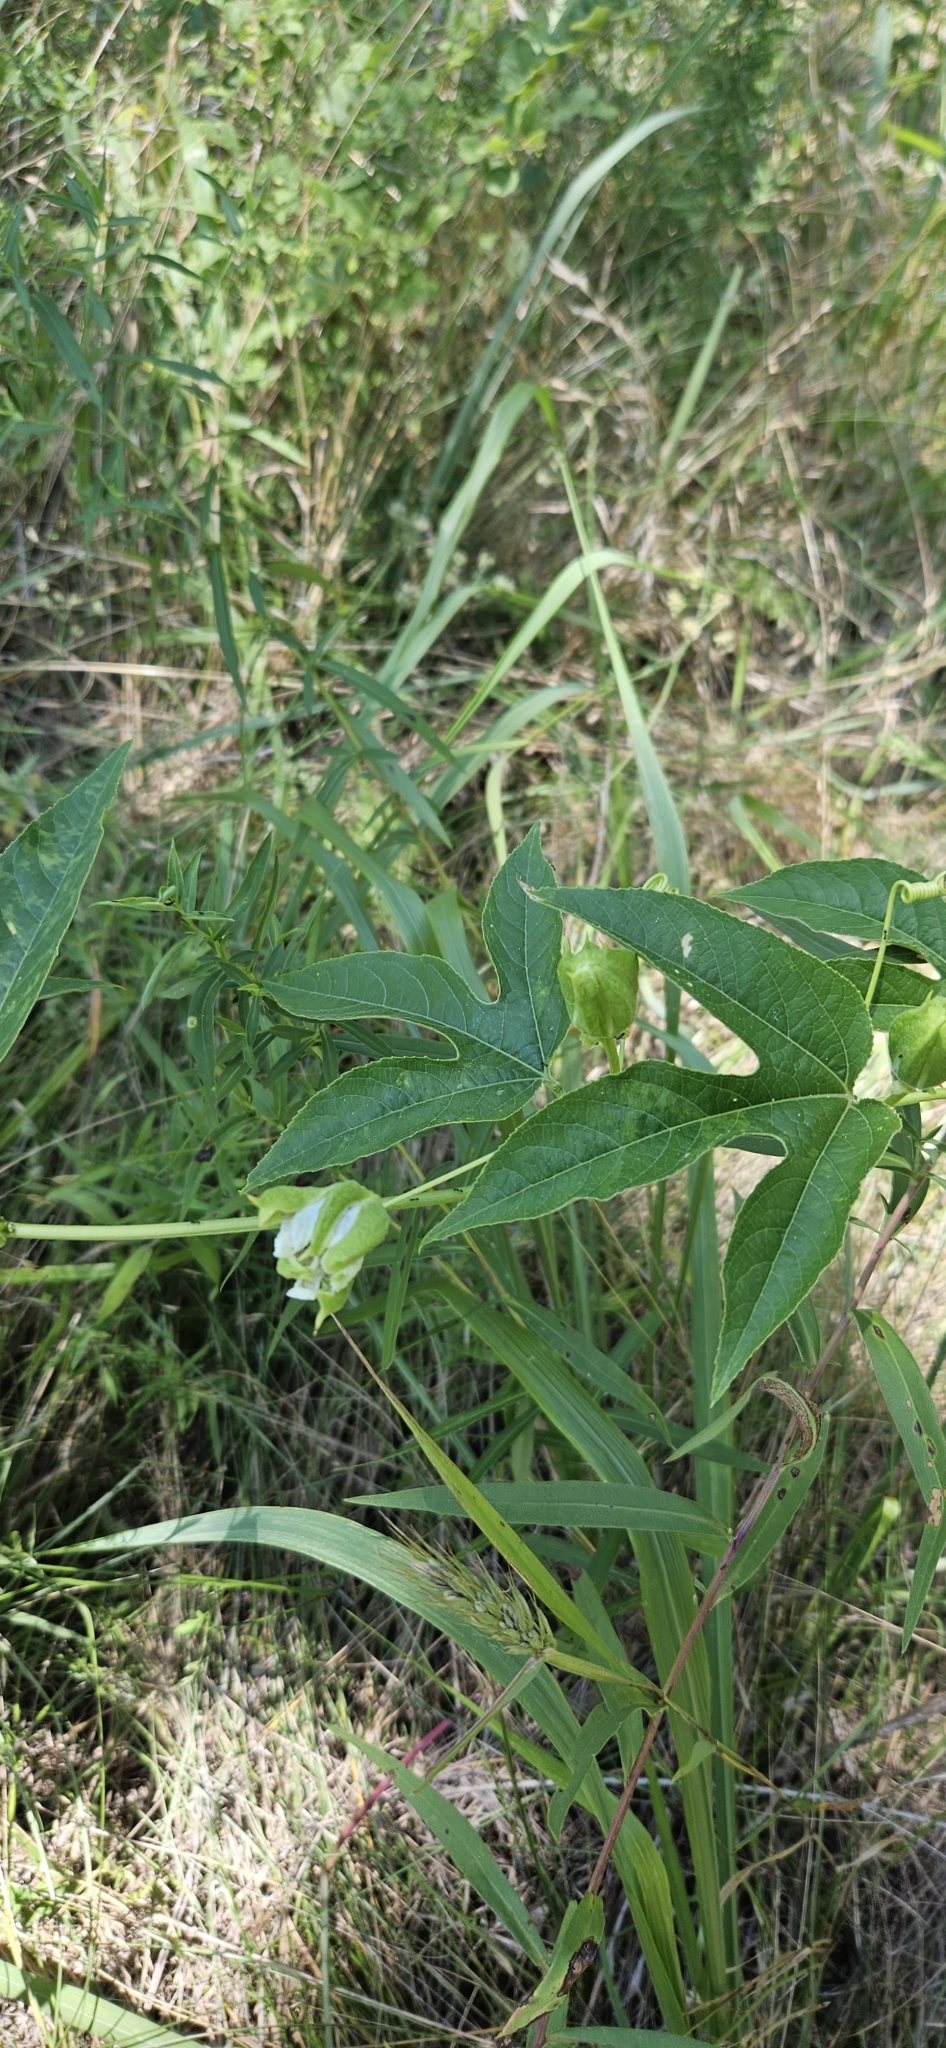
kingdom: Plantae
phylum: Tracheophyta
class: Magnoliopsida
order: Malpighiales
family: Passifloraceae
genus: Passiflora
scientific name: Passiflora incarnata
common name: Apricot-vine
